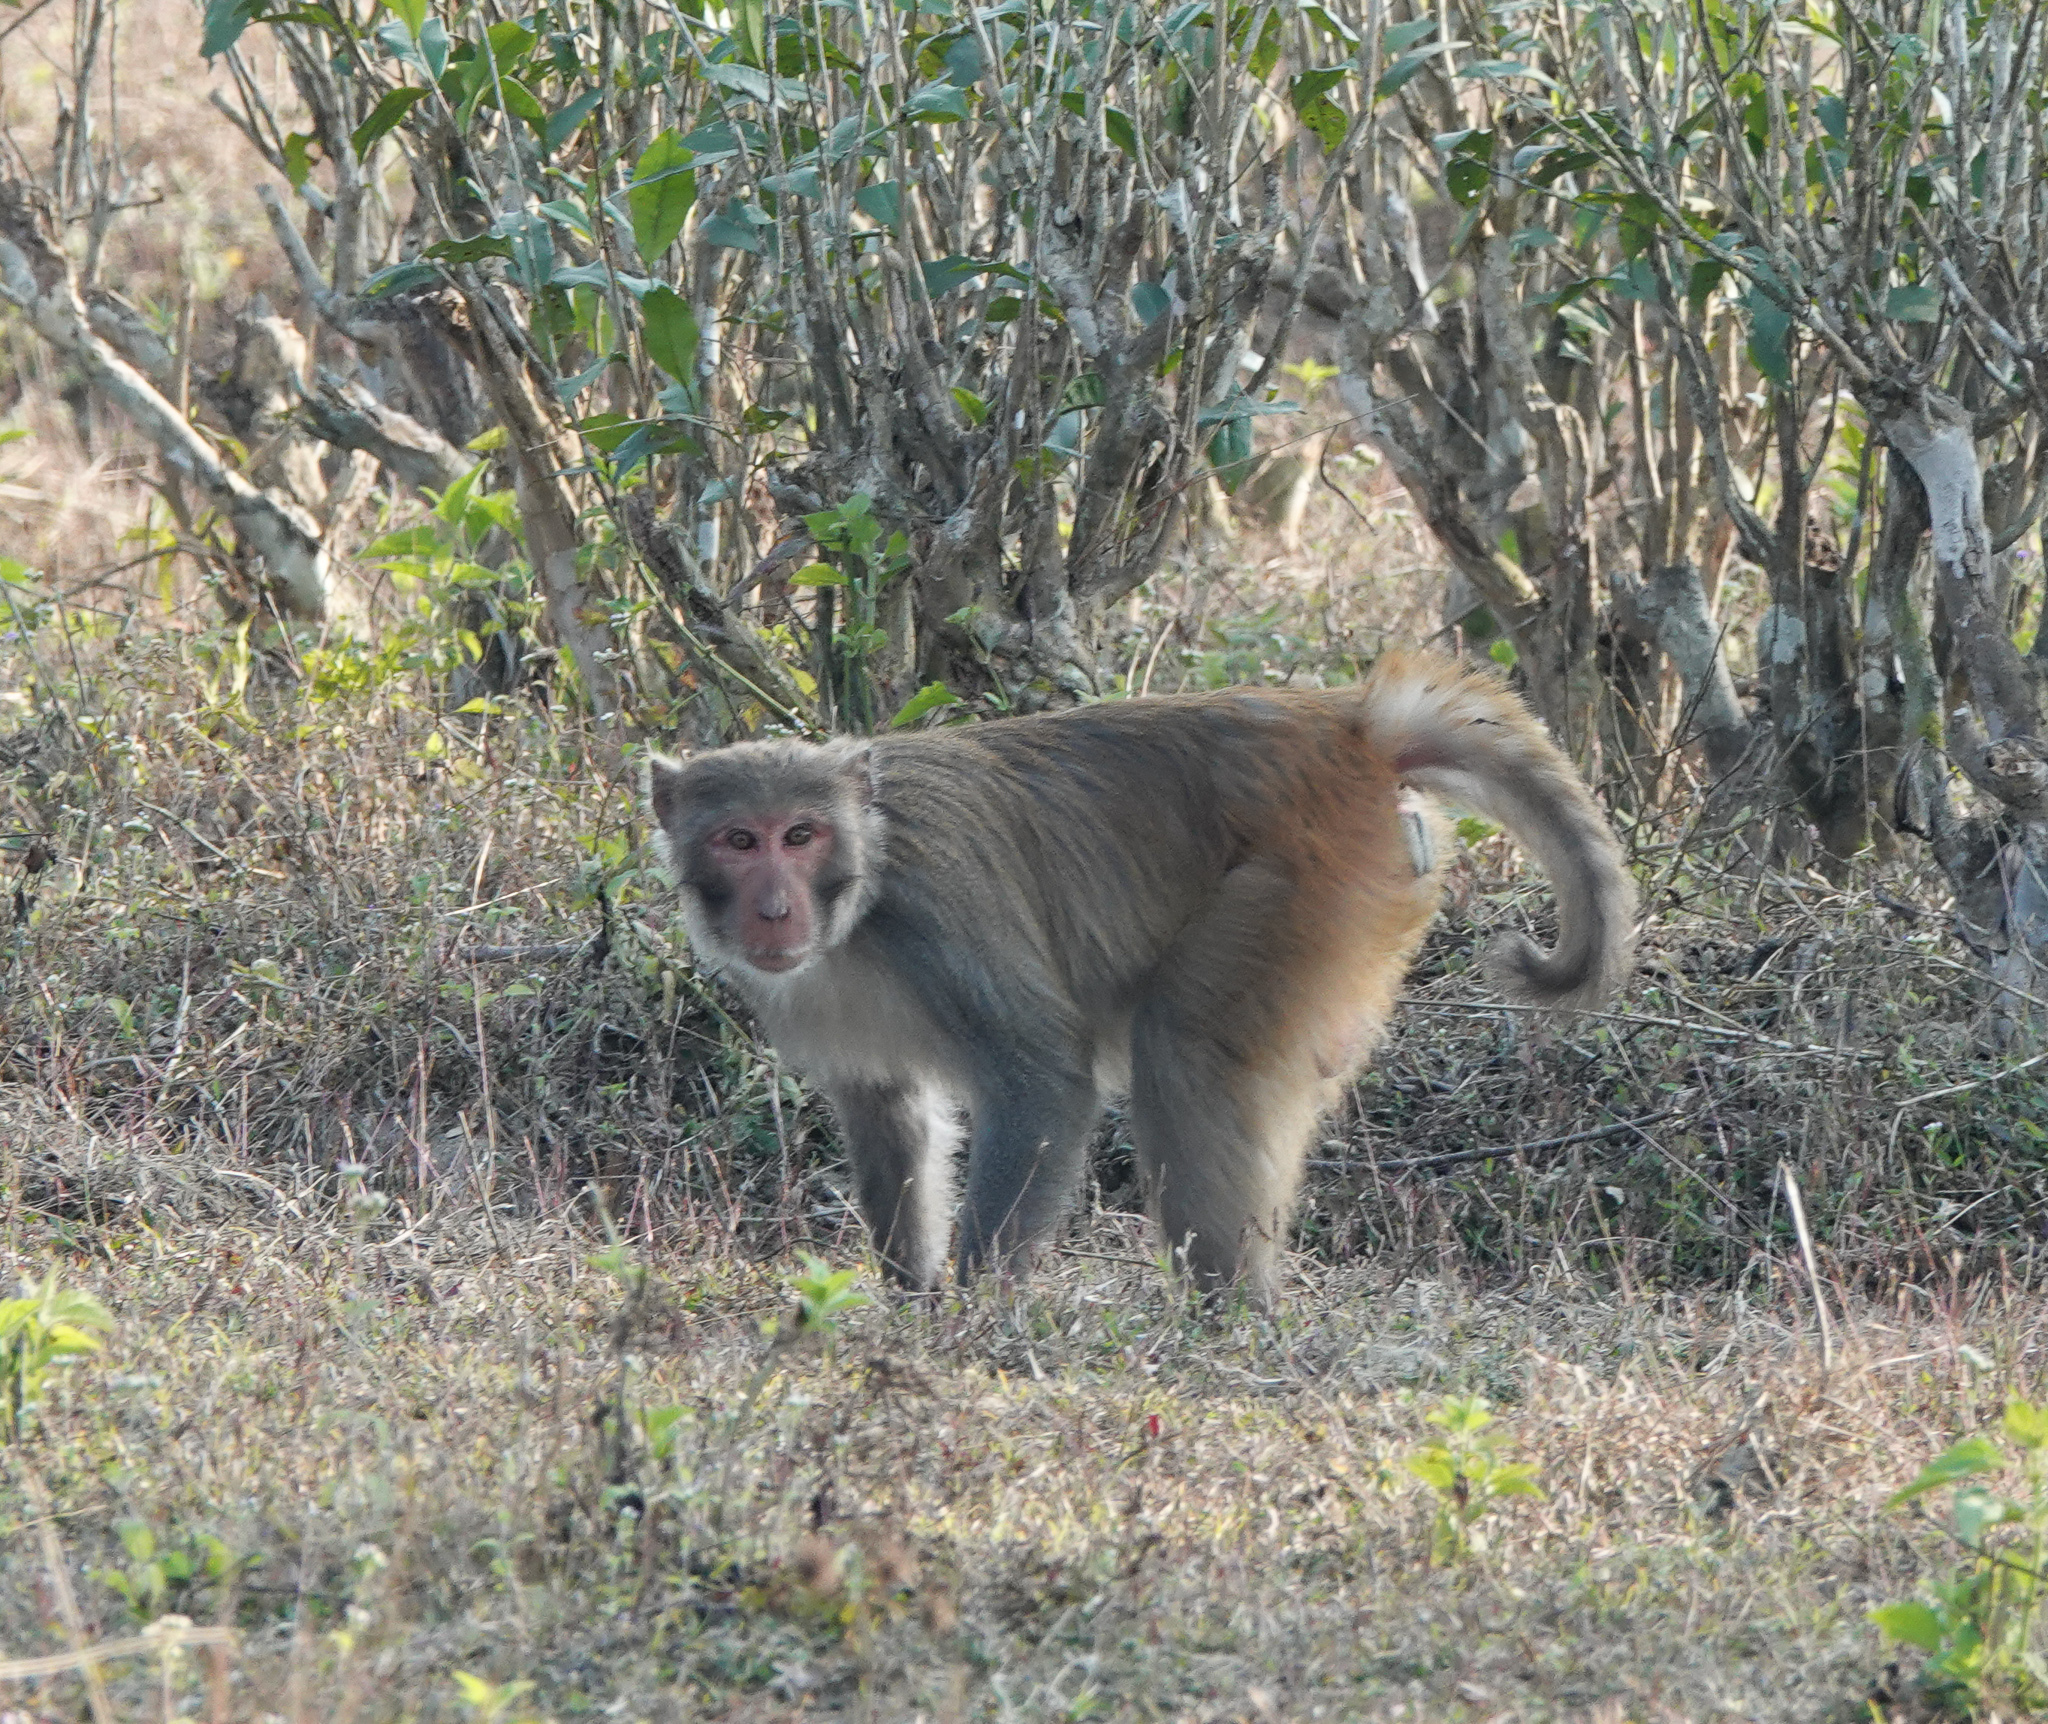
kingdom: Animalia
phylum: Chordata
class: Mammalia
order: Primates
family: Cercopithecidae
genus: Macaca
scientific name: Macaca mulatta
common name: Rhesus monkey
